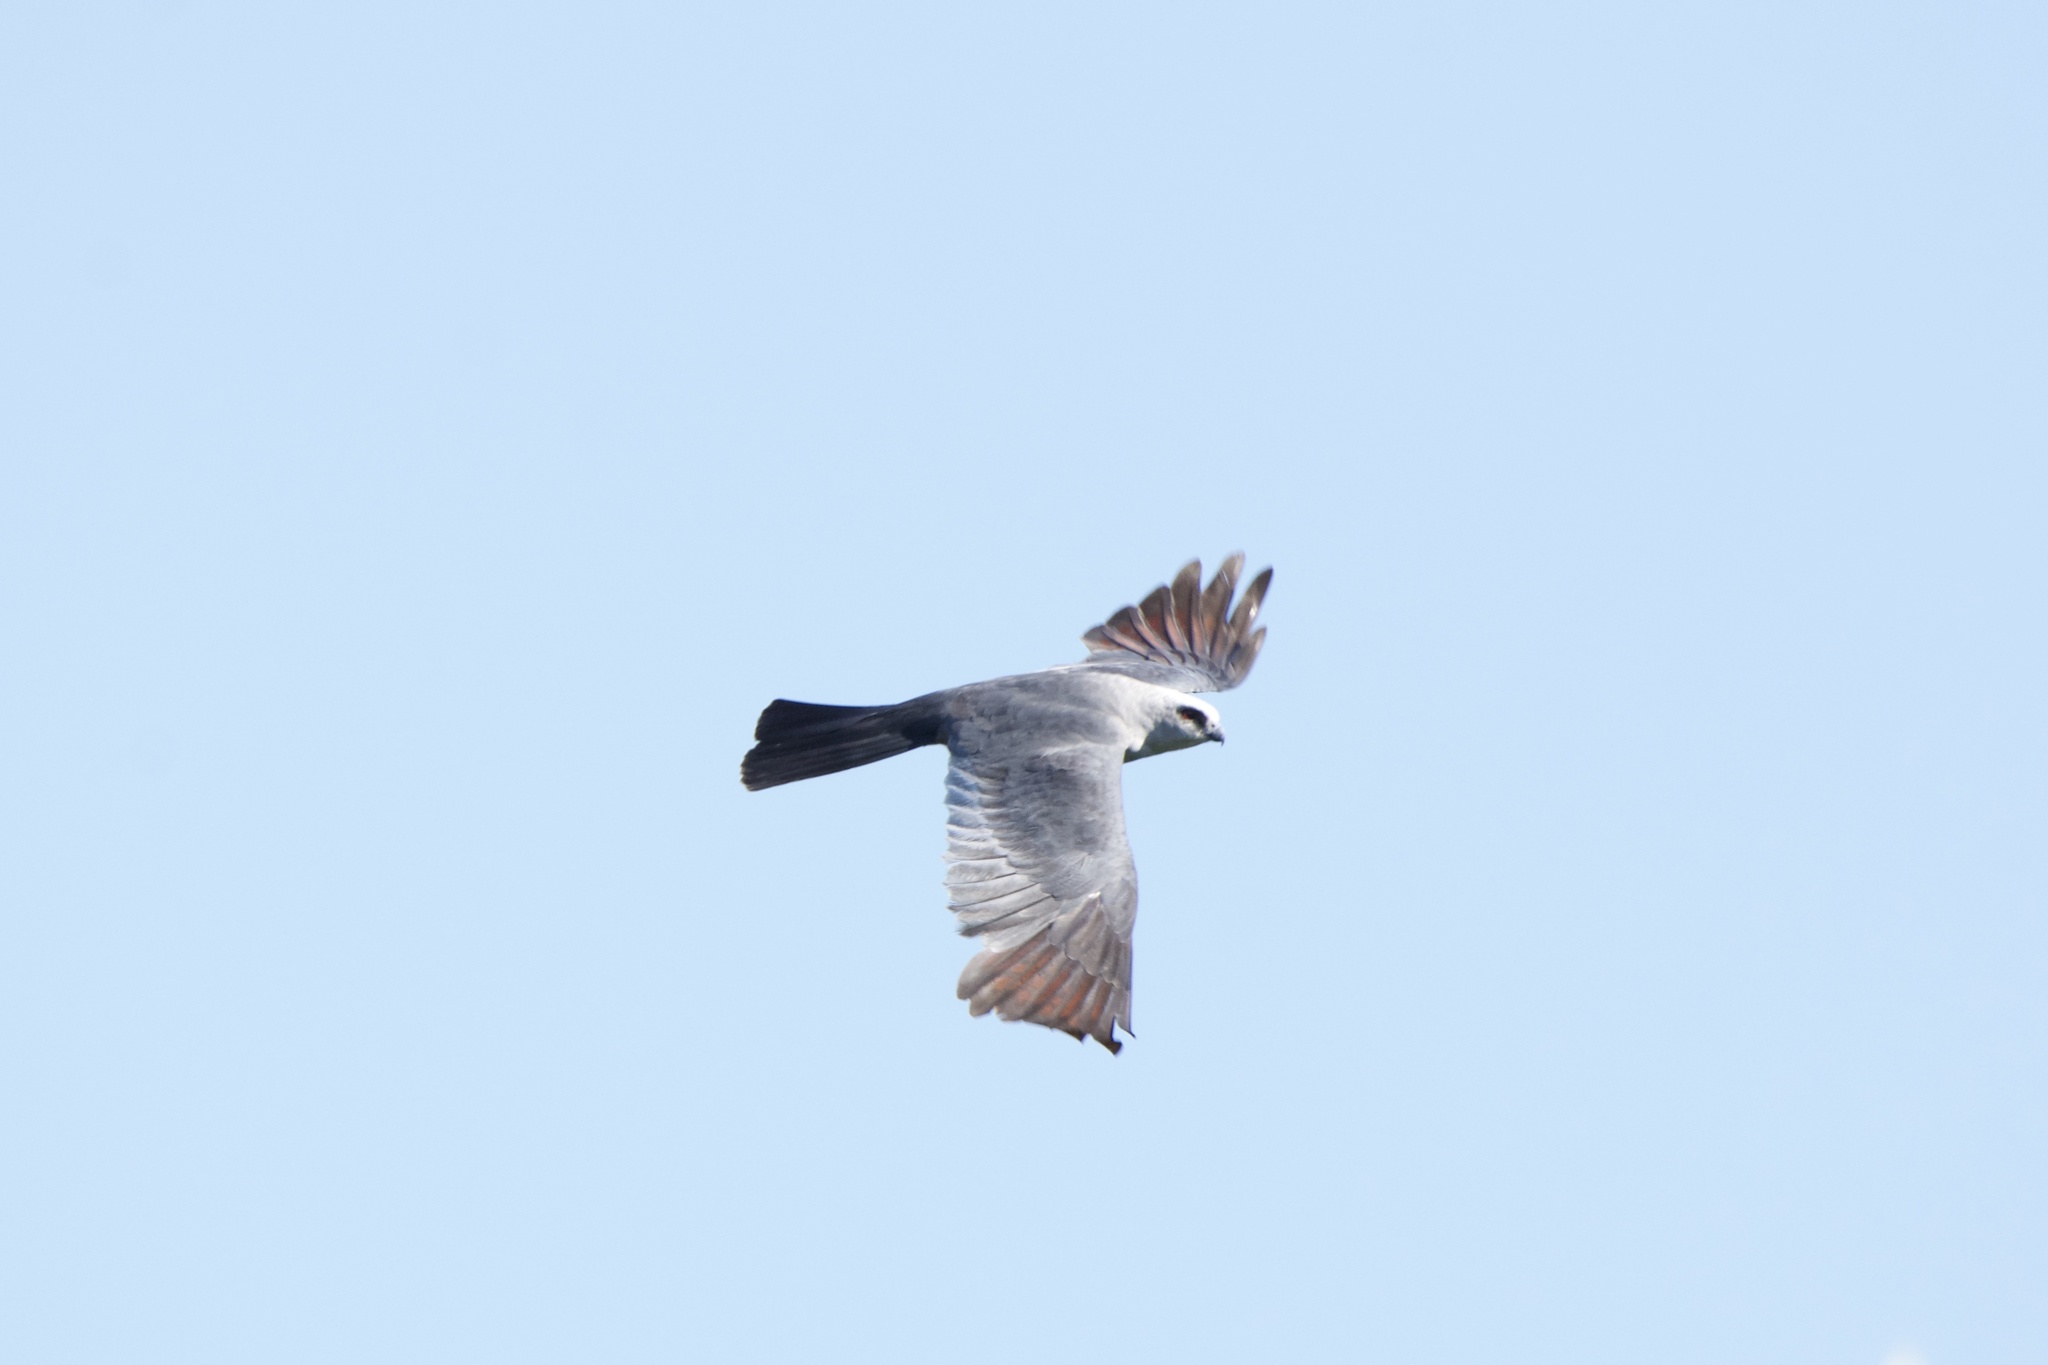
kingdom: Animalia
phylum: Chordata
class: Aves
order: Accipitriformes
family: Accipitridae
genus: Ictinia
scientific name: Ictinia mississippiensis
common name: Mississippi kite
